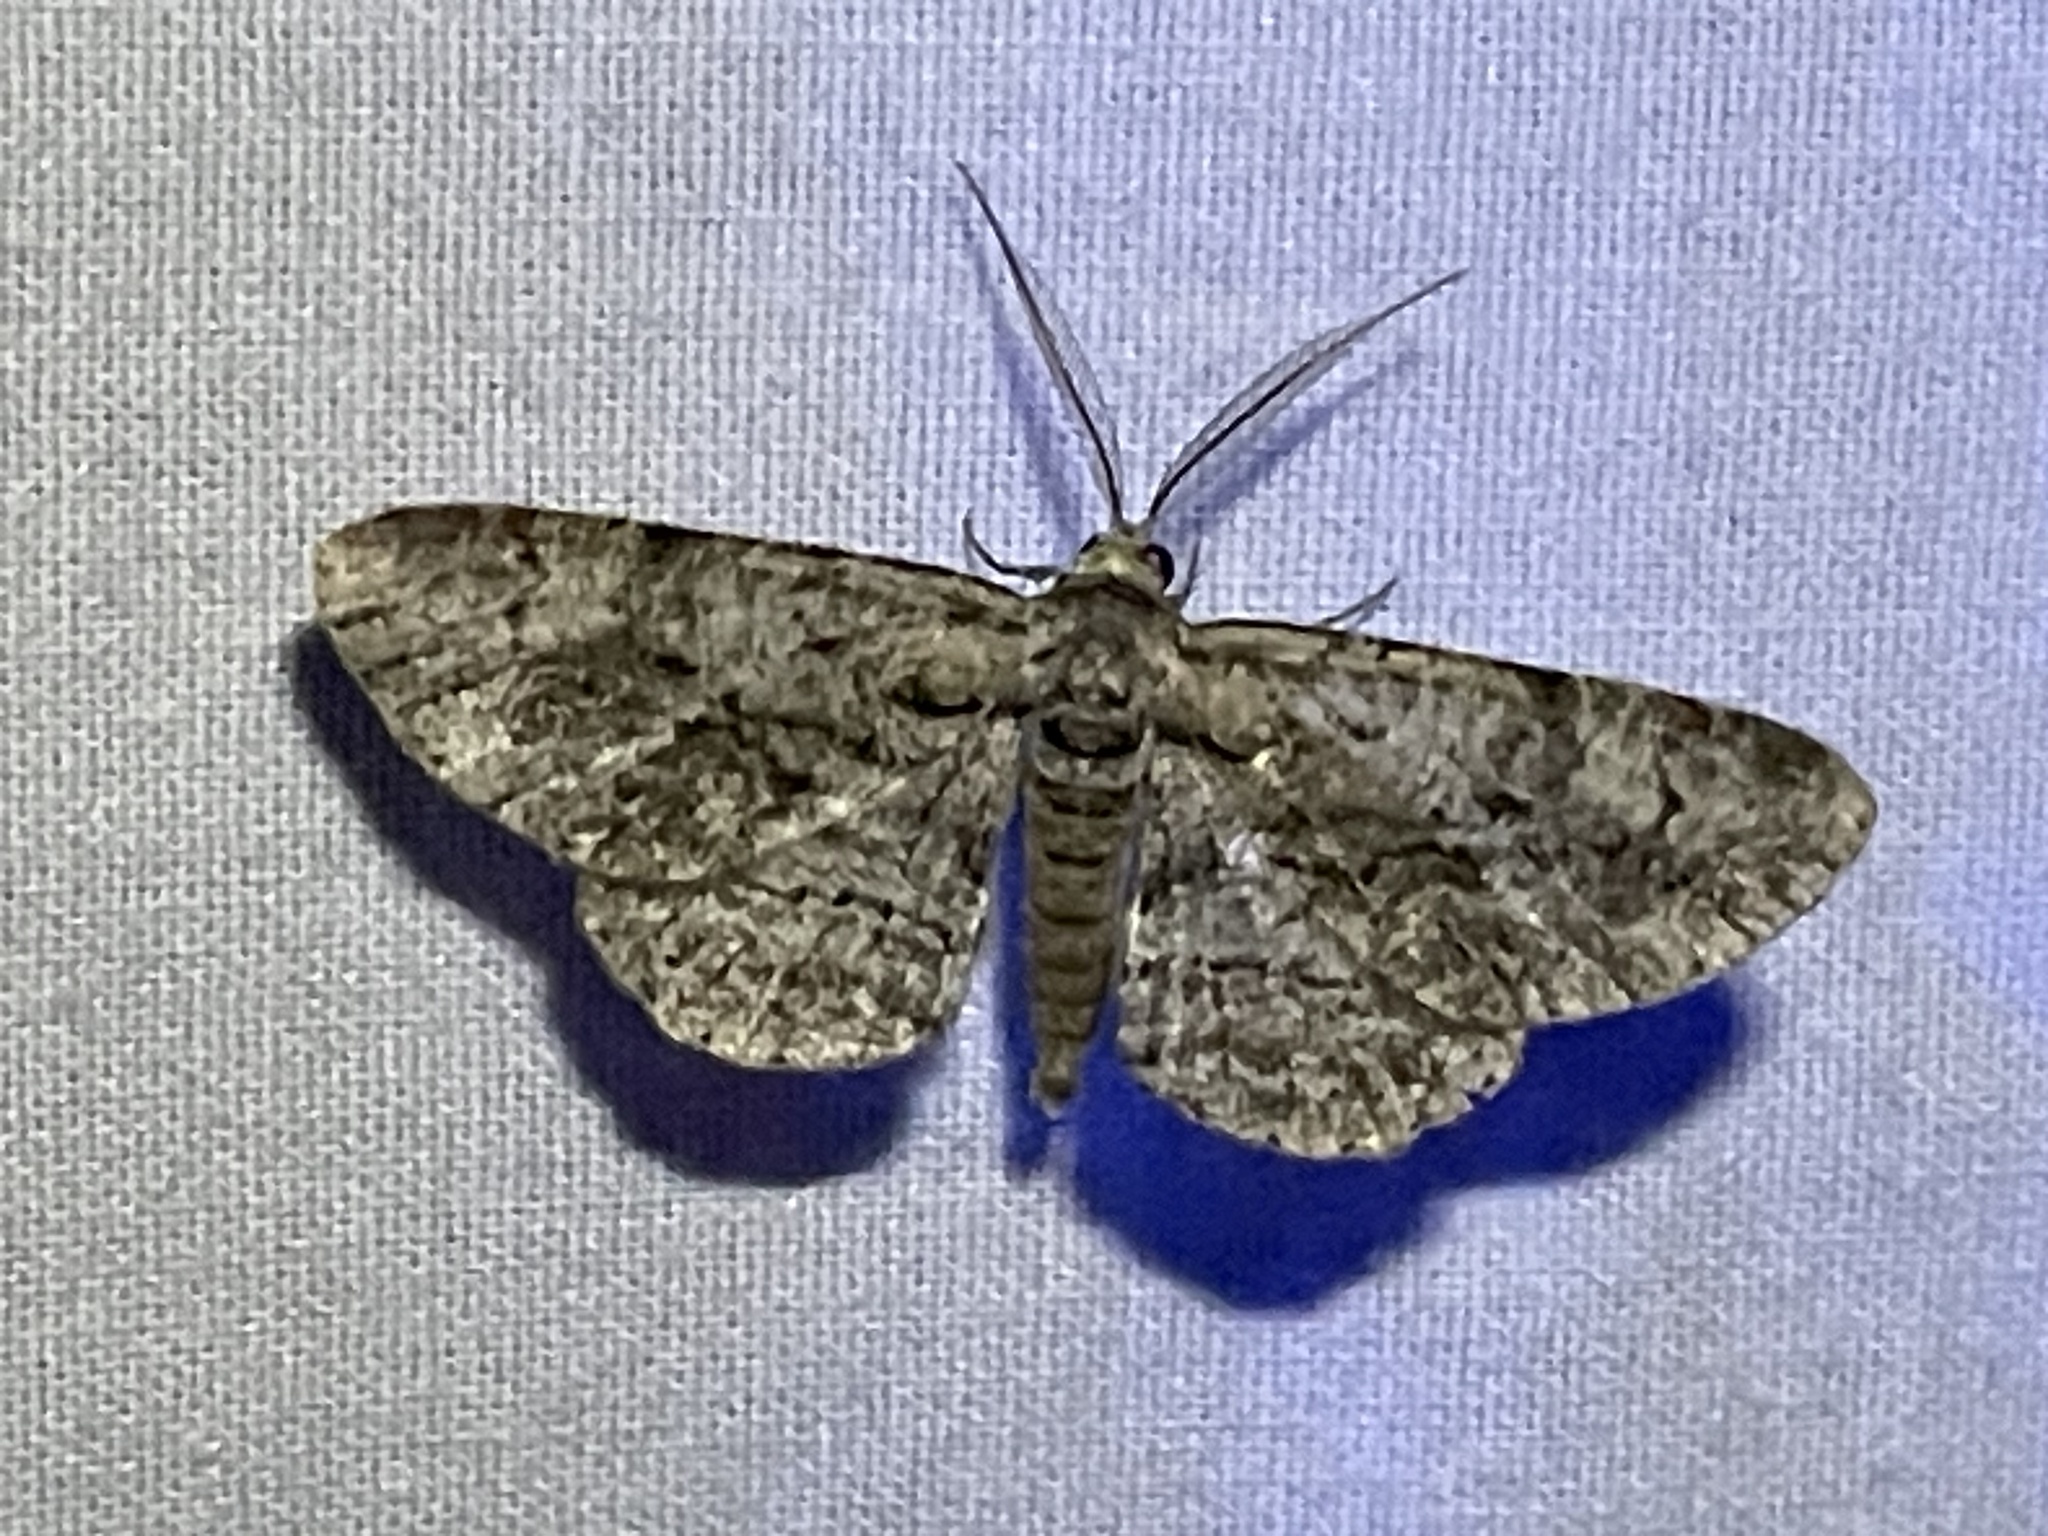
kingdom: Animalia
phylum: Arthropoda
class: Insecta
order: Lepidoptera
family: Geometridae
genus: Anavitrinella
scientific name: Anavitrinella pampinaria
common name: Common gray
